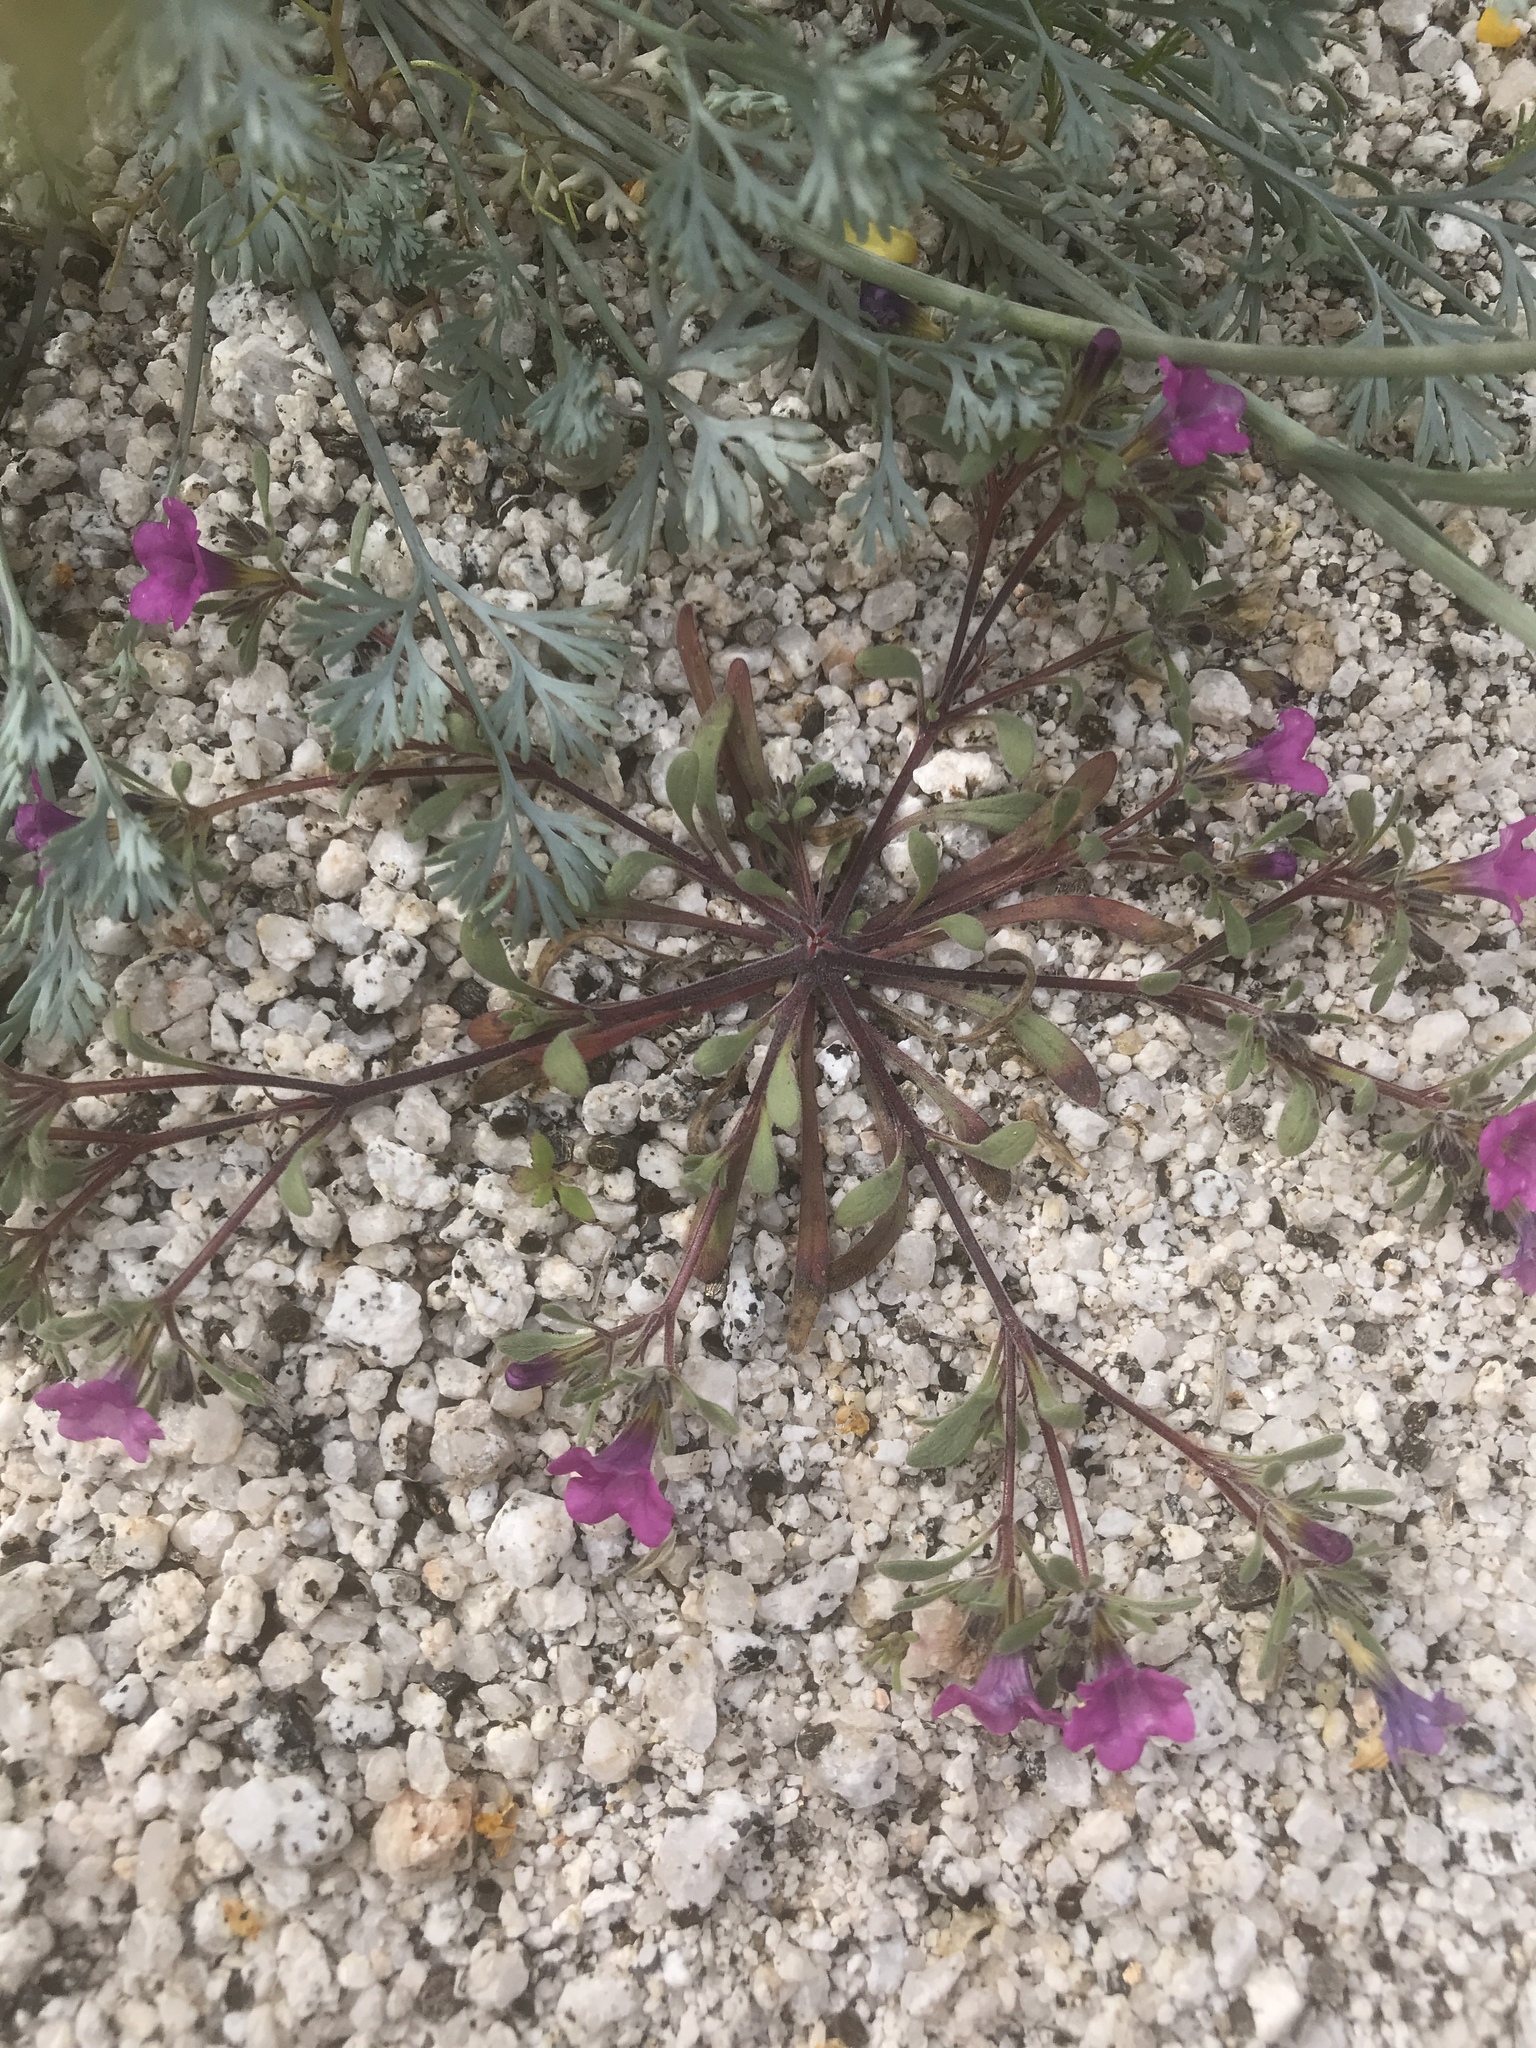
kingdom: Plantae
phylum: Tracheophyta
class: Magnoliopsida
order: Boraginales
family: Namaceae
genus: Nama
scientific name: Nama demissa
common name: Leafy nama
